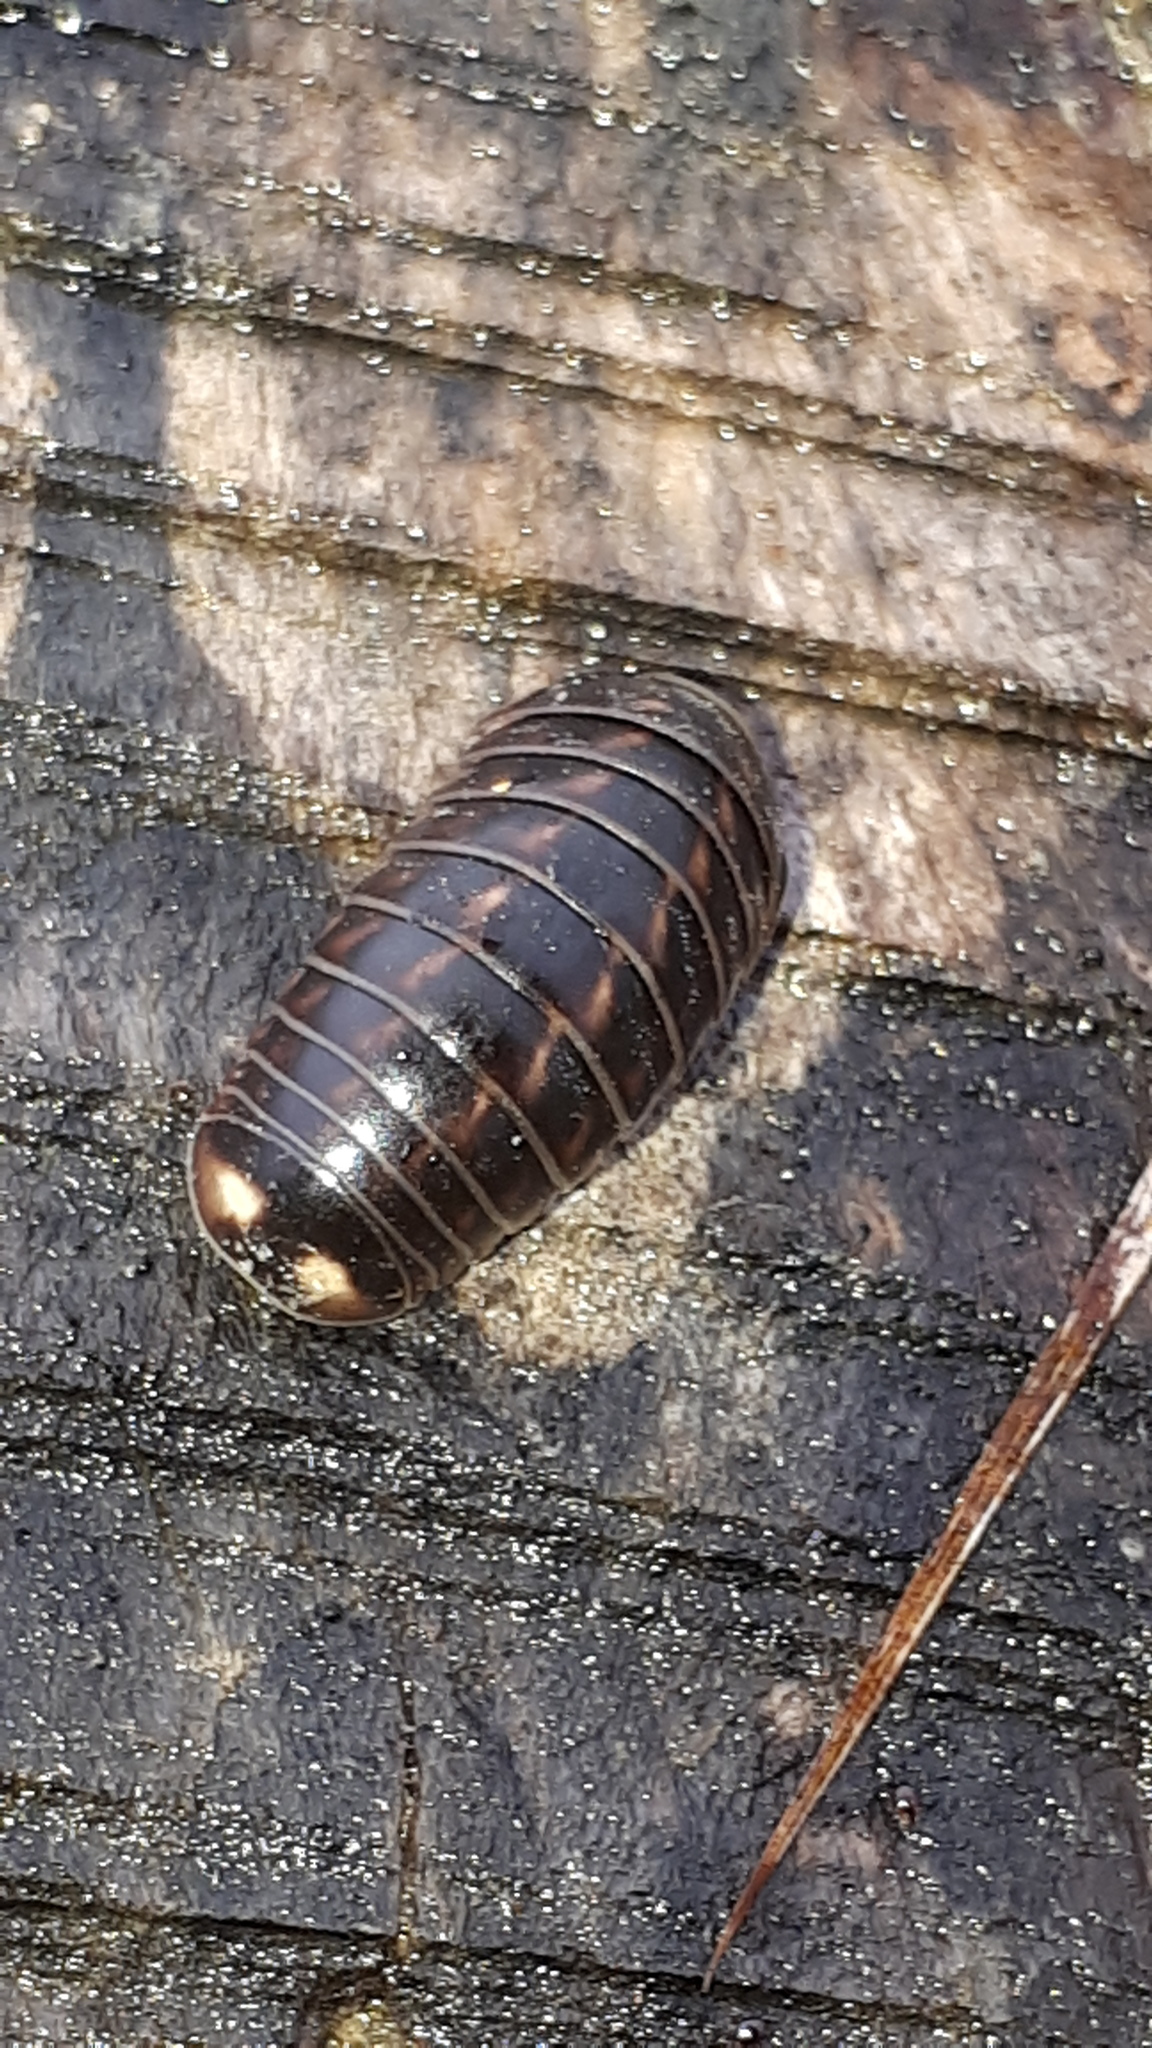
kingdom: Animalia
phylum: Arthropoda
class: Diplopoda
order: Glomerida
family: Glomeridae
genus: Glomeris
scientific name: Glomeris hexasticha
